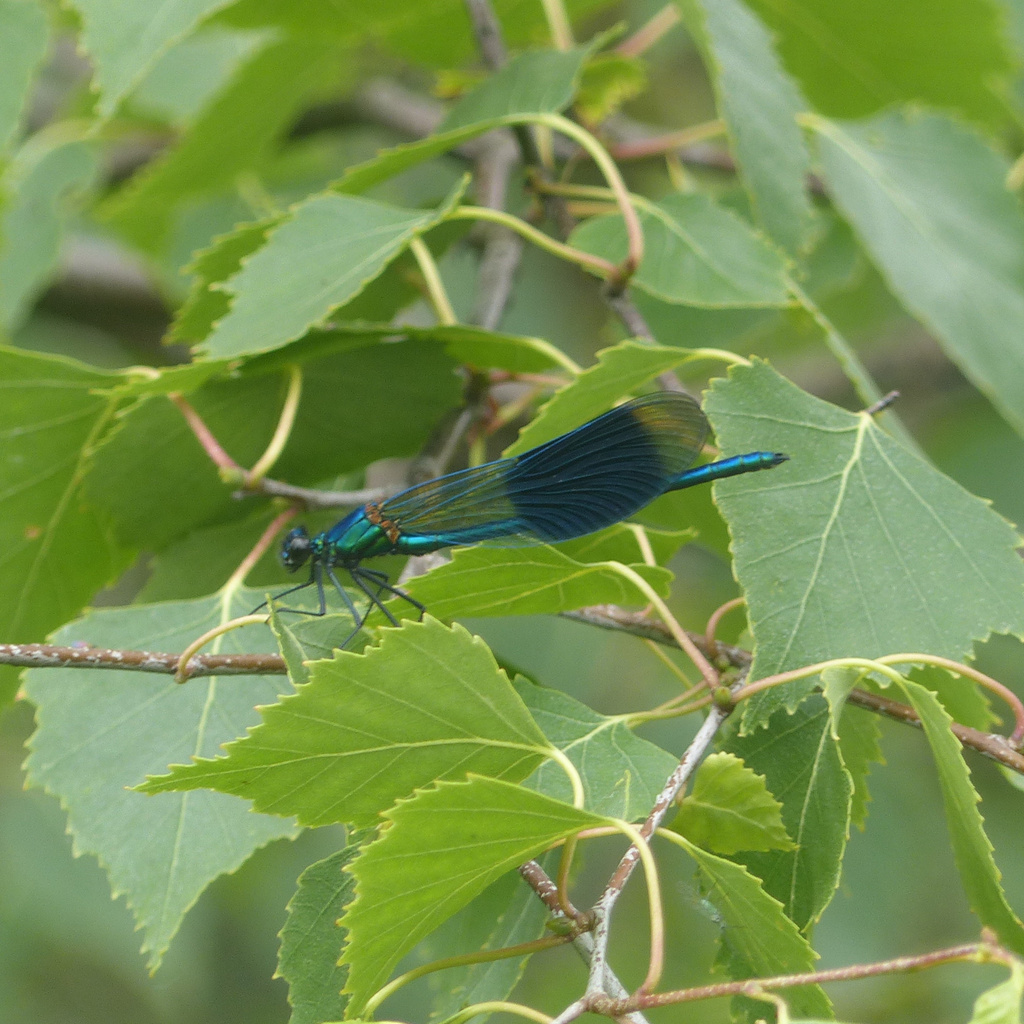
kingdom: Animalia
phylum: Arthropoda
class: Insecta
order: Odonata
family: Calopterygidae
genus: Calopteryx
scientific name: Calopteryx splendens
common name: Banded demoiselle
